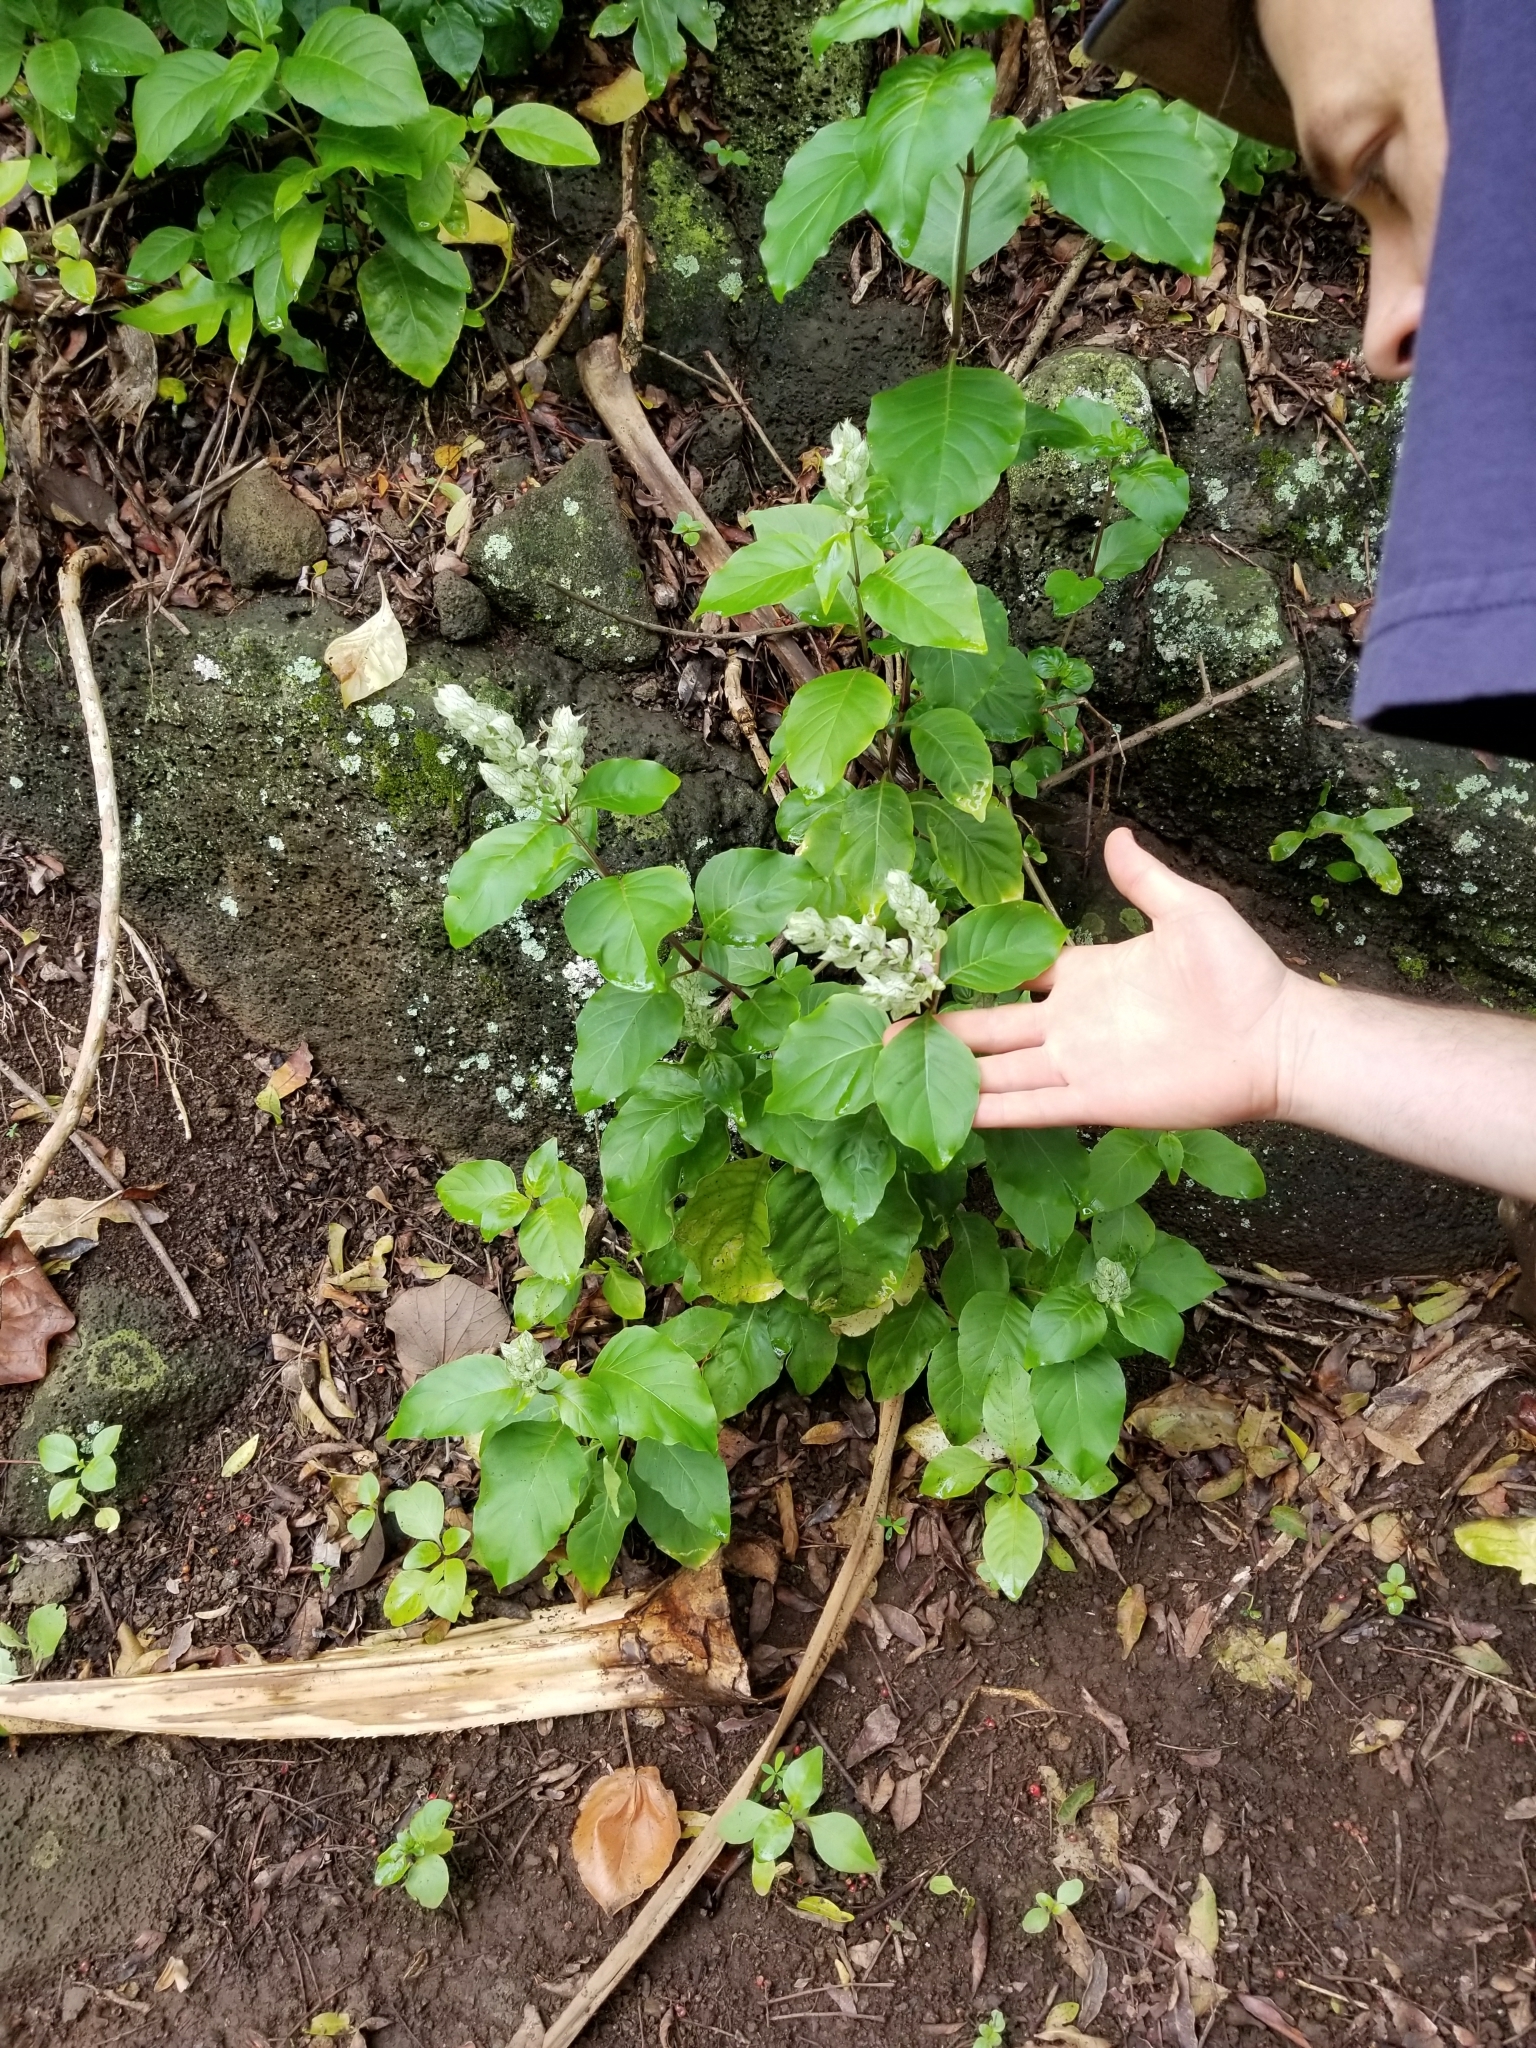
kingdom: Plantae
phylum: Tracheophyta
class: Magnoliopsida
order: Lamiales
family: Acanthaceae
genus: Justicia
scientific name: Justicia betonica
